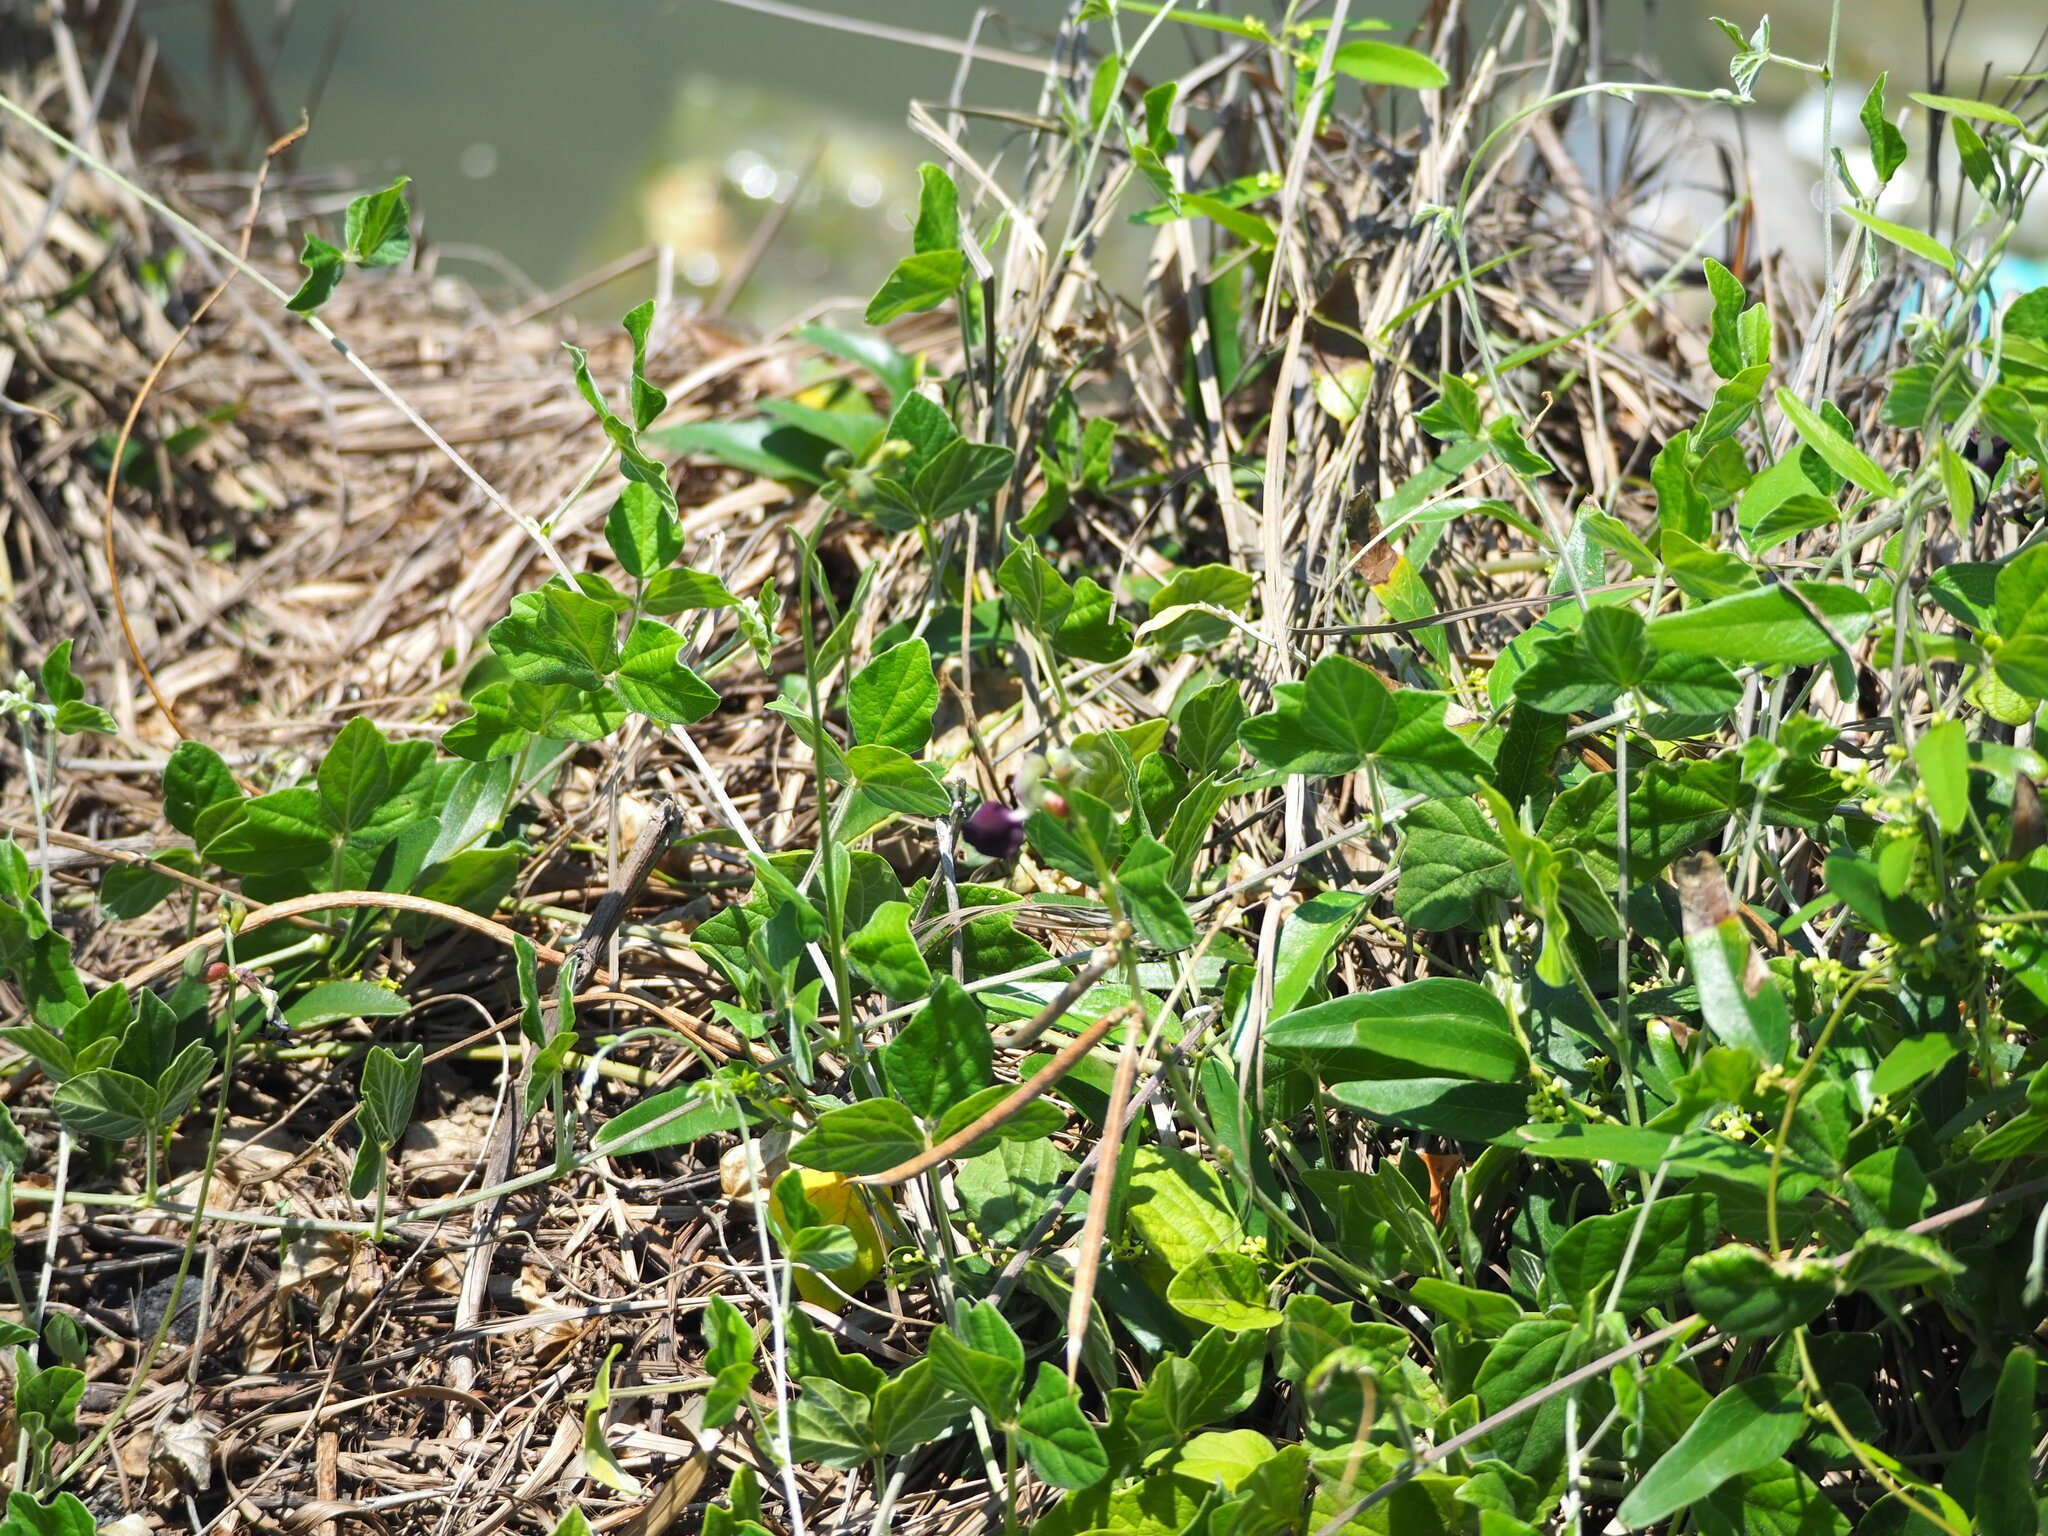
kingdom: Plantae
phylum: Tracheophyta
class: Magnoliopsida
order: Fabales
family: Fabaceae
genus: Macroptilium
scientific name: Macroptilium atropurpureum
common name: Purple bushbean
